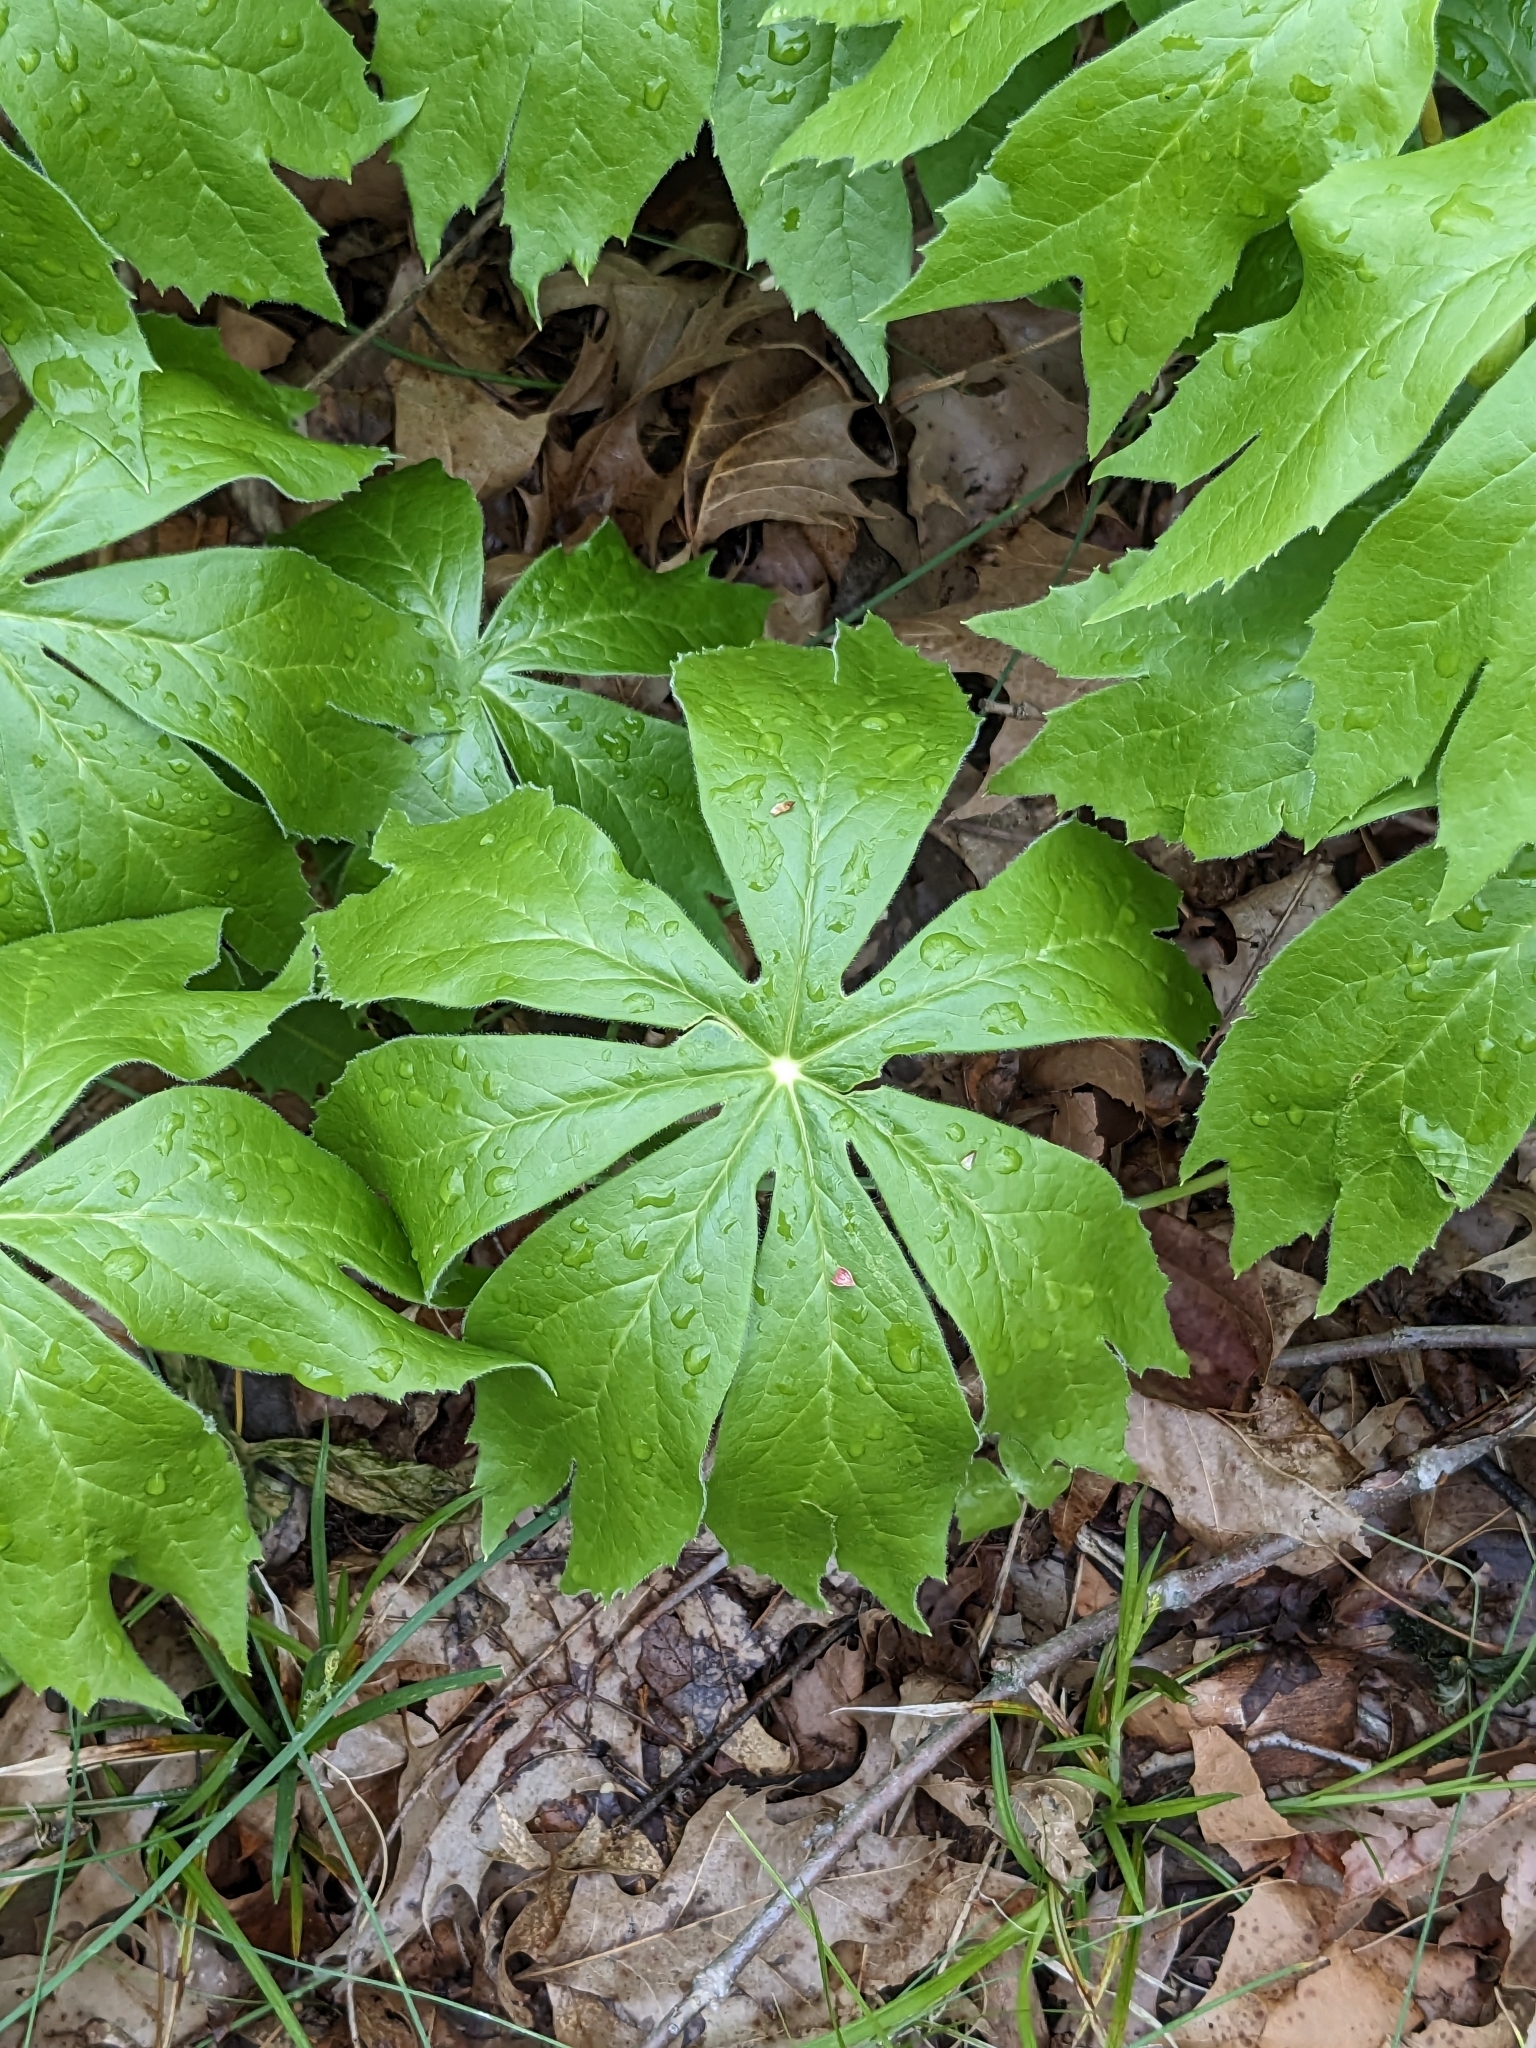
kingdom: Plantae
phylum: Tracheophyta
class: Magnoliopsida
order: Ranunculales
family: Berberidaceae
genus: Podophyllum
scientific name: Podophyllum peltatum
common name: Wild mandrake
